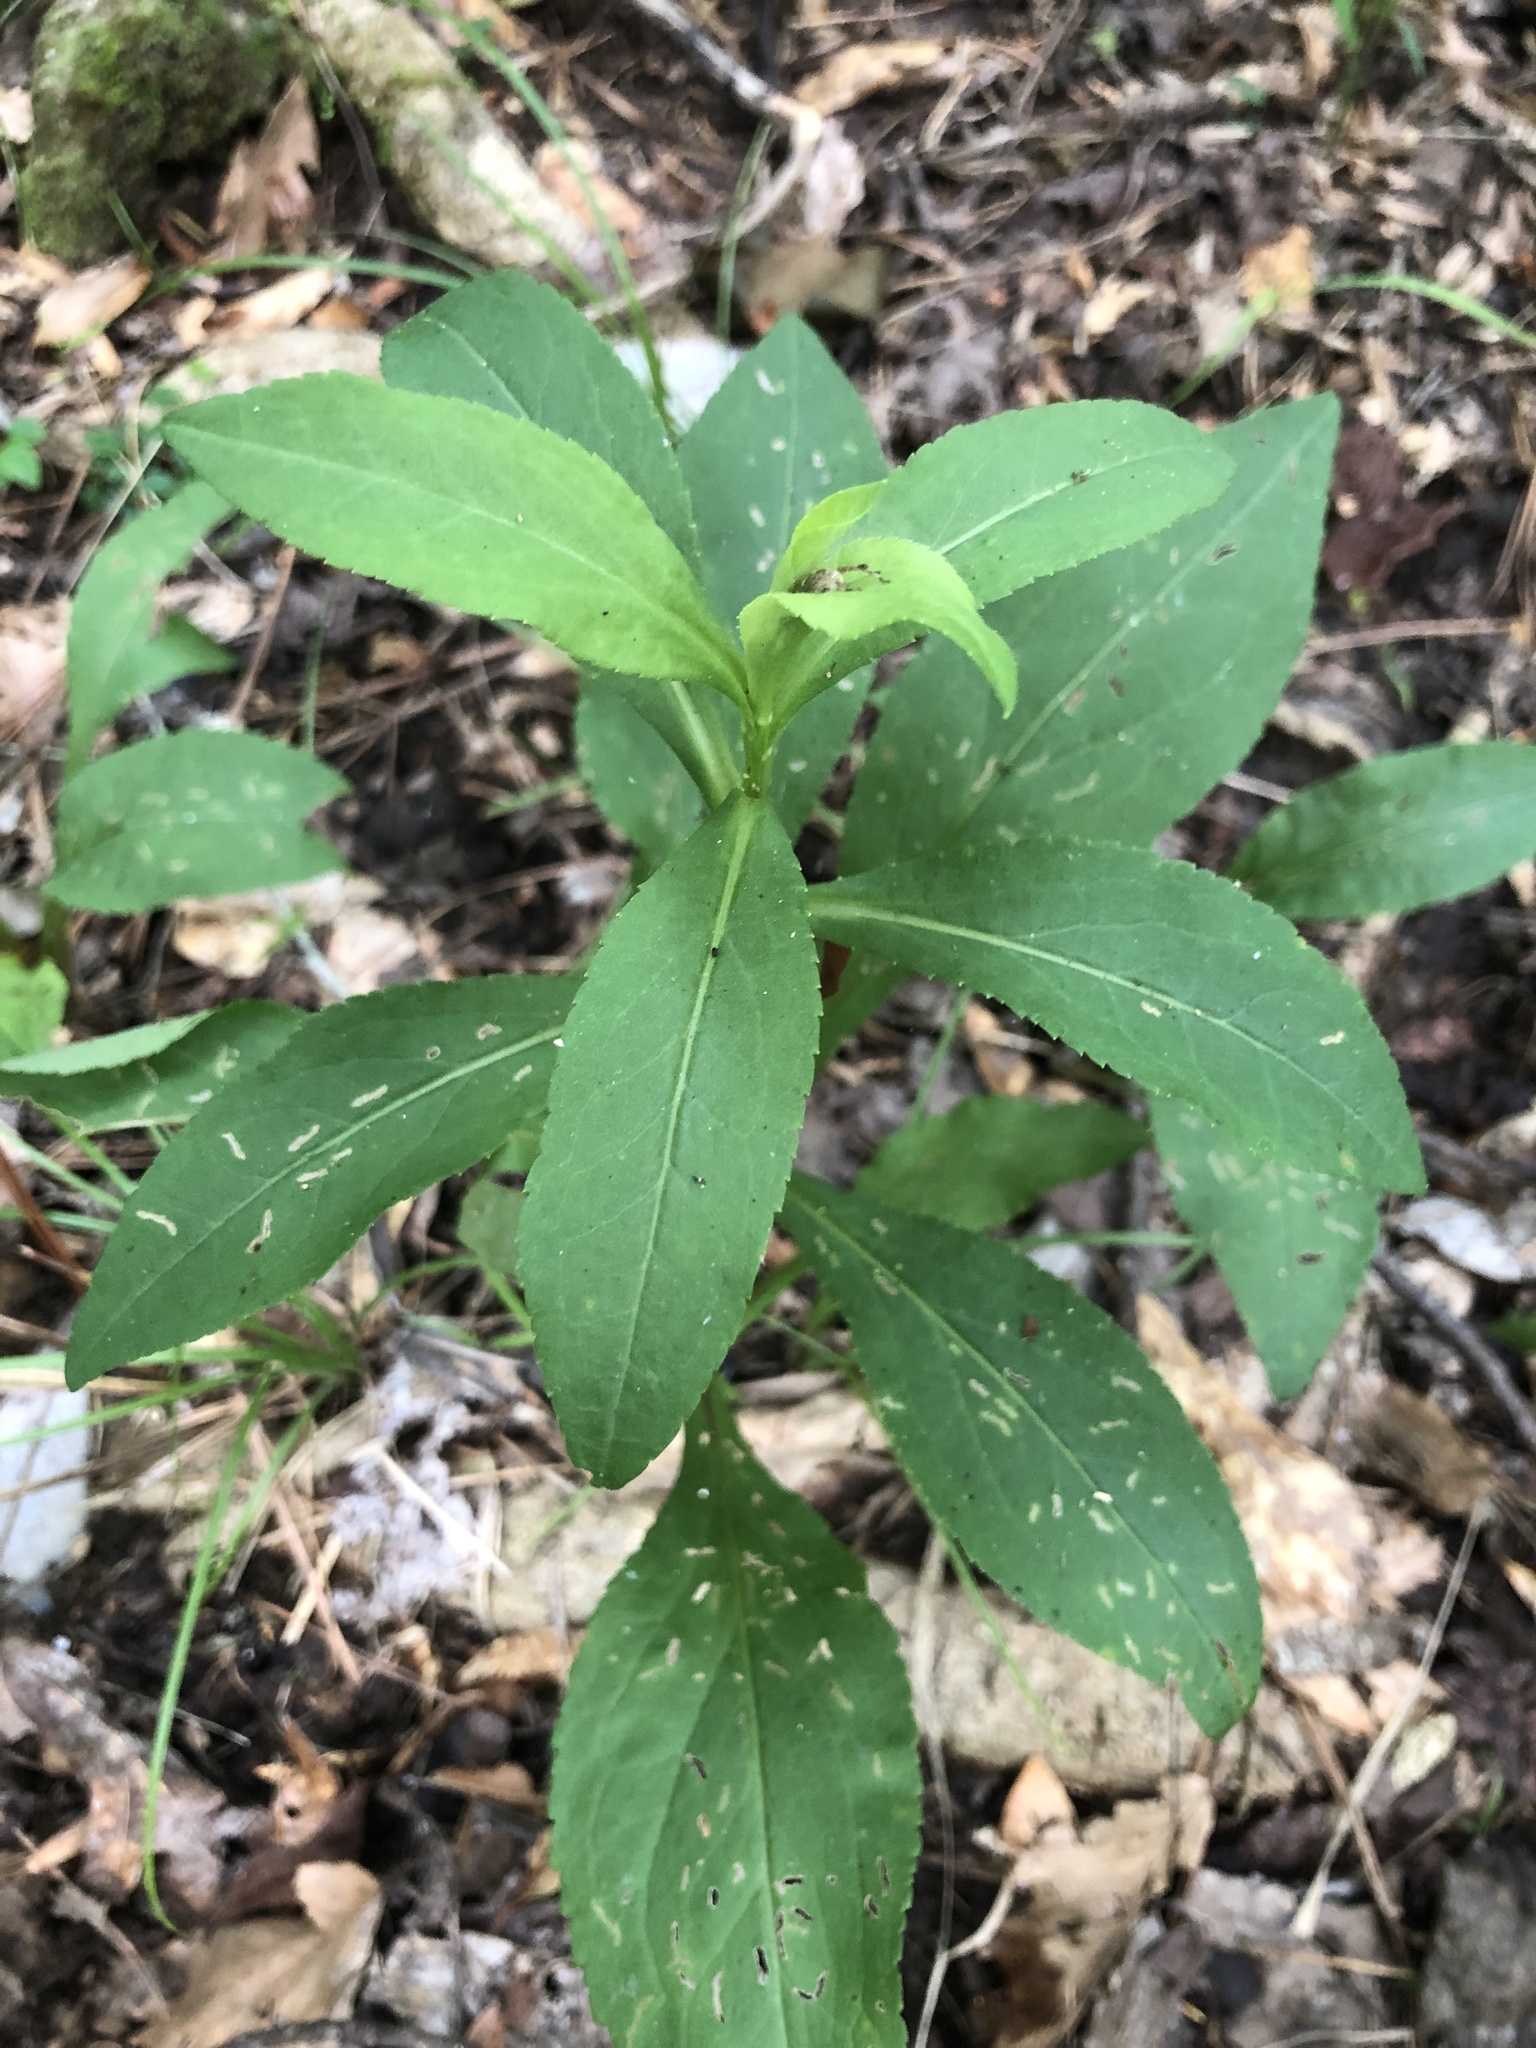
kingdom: Plantae
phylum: Tracheophyta
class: Magnoliopsida
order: Asterales
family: Asteraceae
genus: Solidago
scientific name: Solidago patula
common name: Rough-leaf goldenrod
